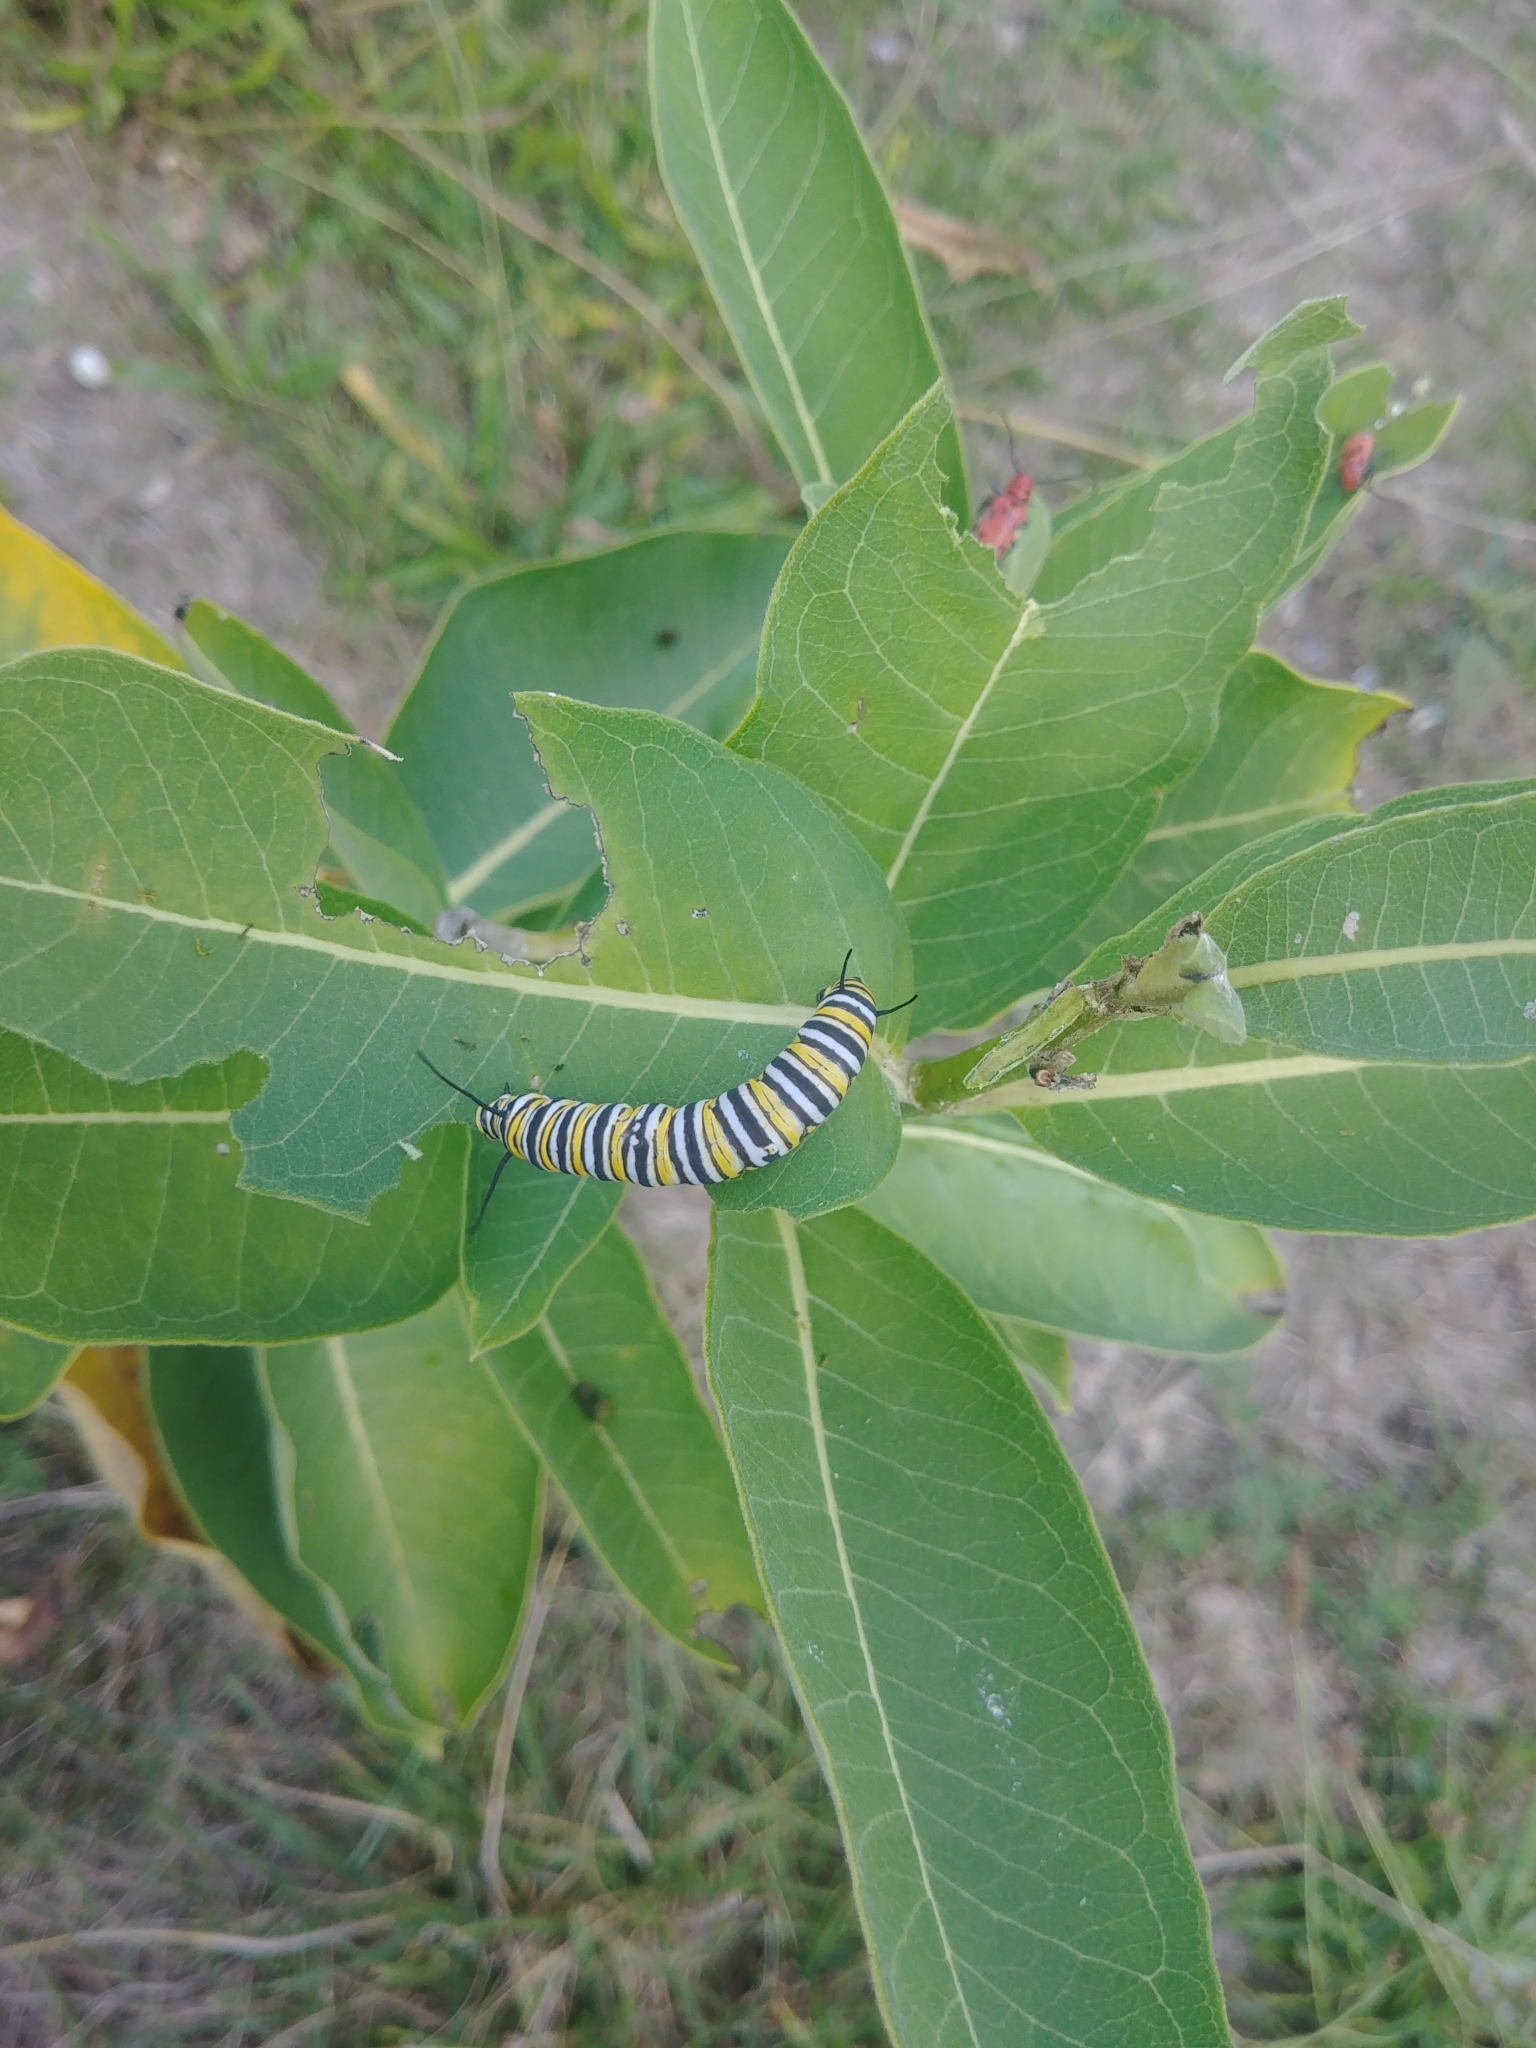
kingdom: Animalia
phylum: Arthropoda
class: Insecta
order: Lepidoptera
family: Nymphalidae
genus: Danaus
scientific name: Danaus plexippus
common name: Monarch
